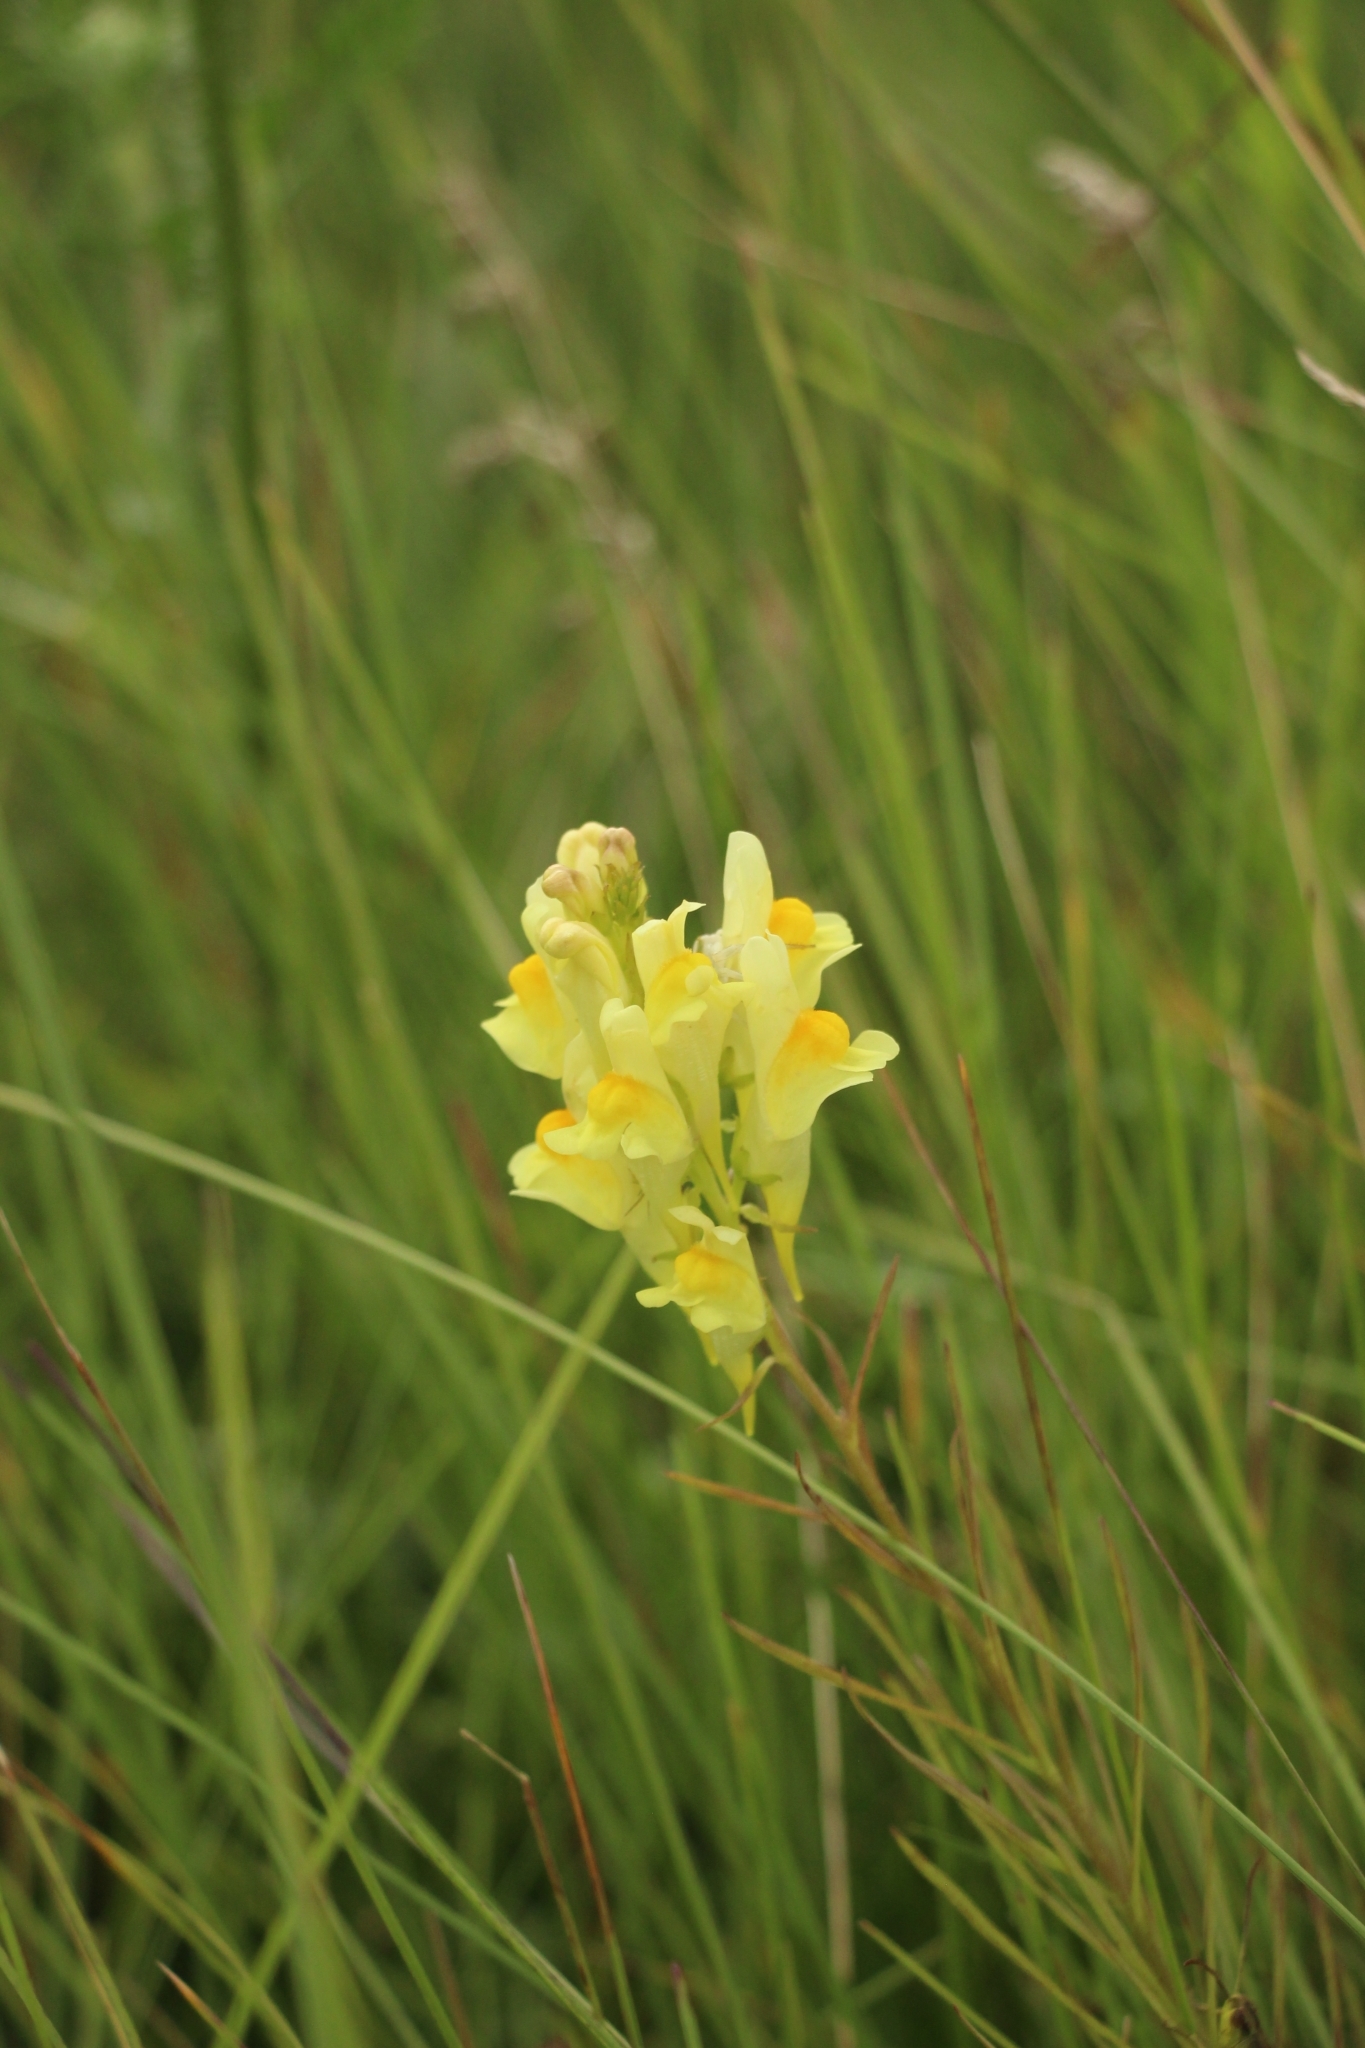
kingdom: Plantae
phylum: Tracheophyta
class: Magnoliopsida
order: Lamiales
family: Plantaginaceae
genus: Linaria
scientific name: Linaria vulgaris
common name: Butter and eggs
